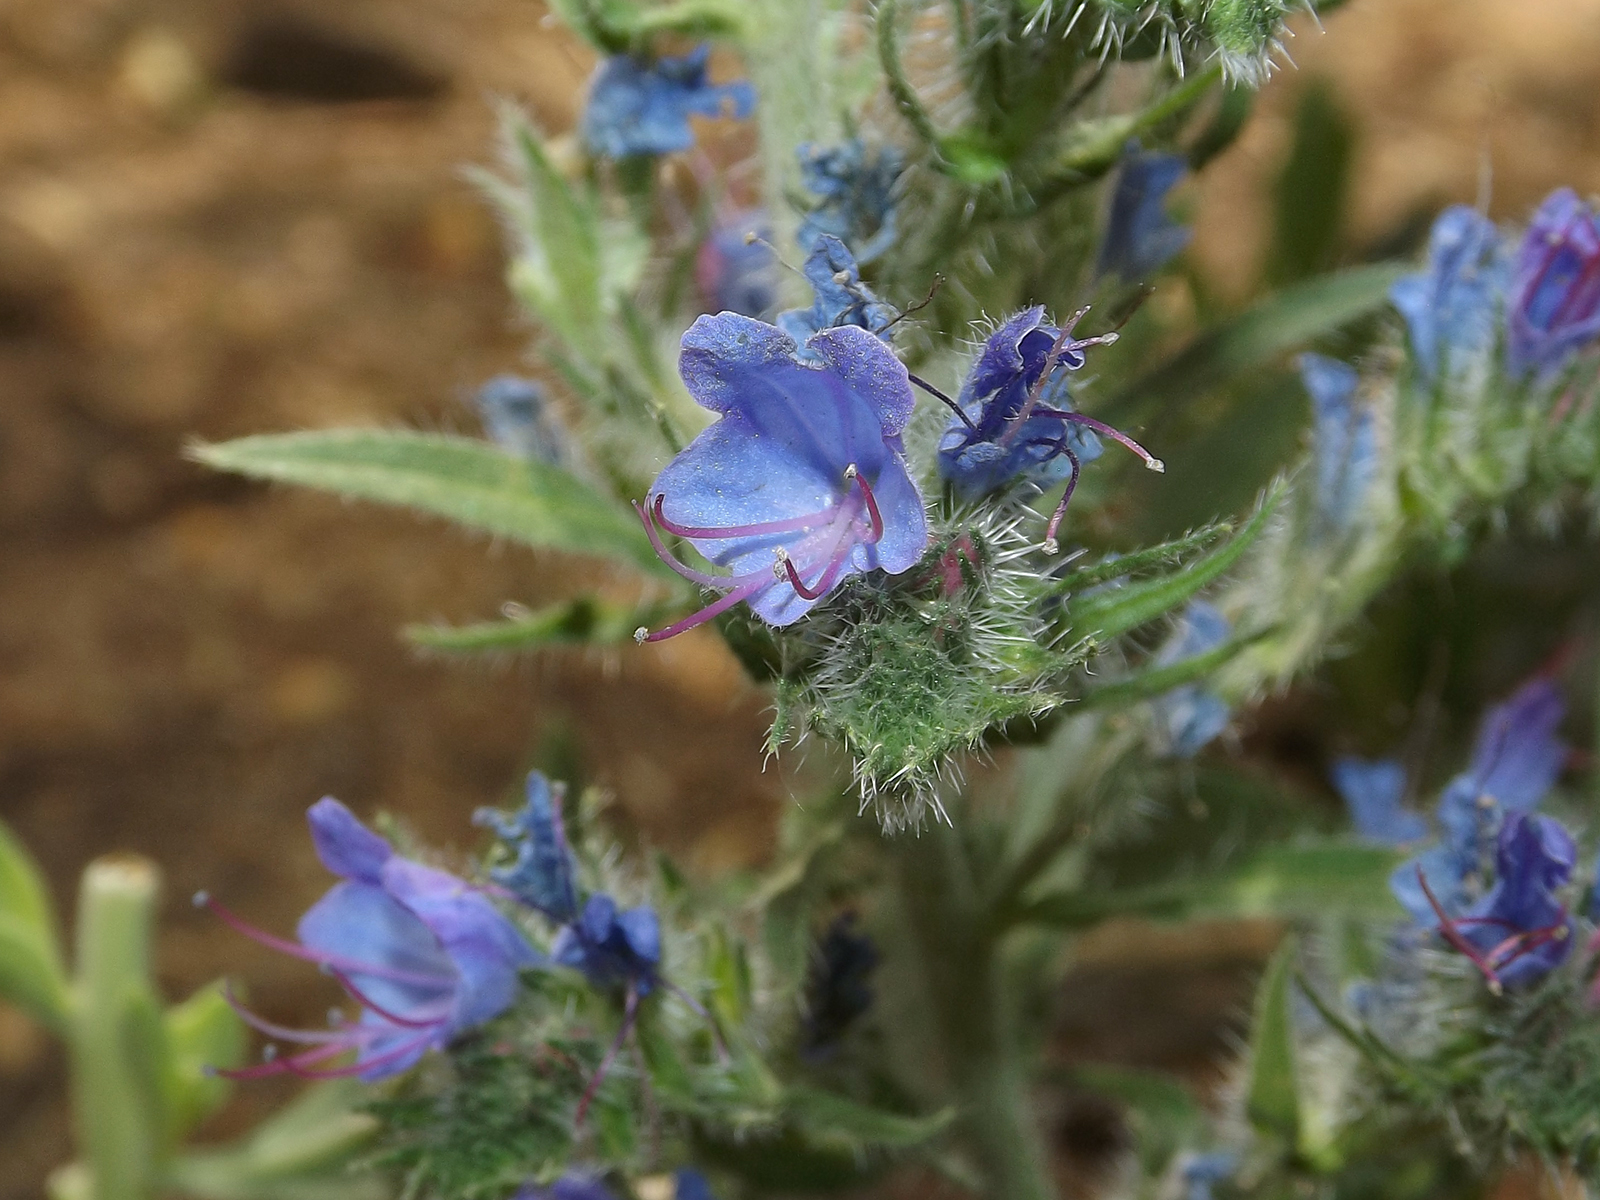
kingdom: Plantae
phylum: Tracheophyta
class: Magnoliopsida
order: Boraginales
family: Boraginaceae
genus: Echium
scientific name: Echium vulgare
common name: Common viper's bugloss
